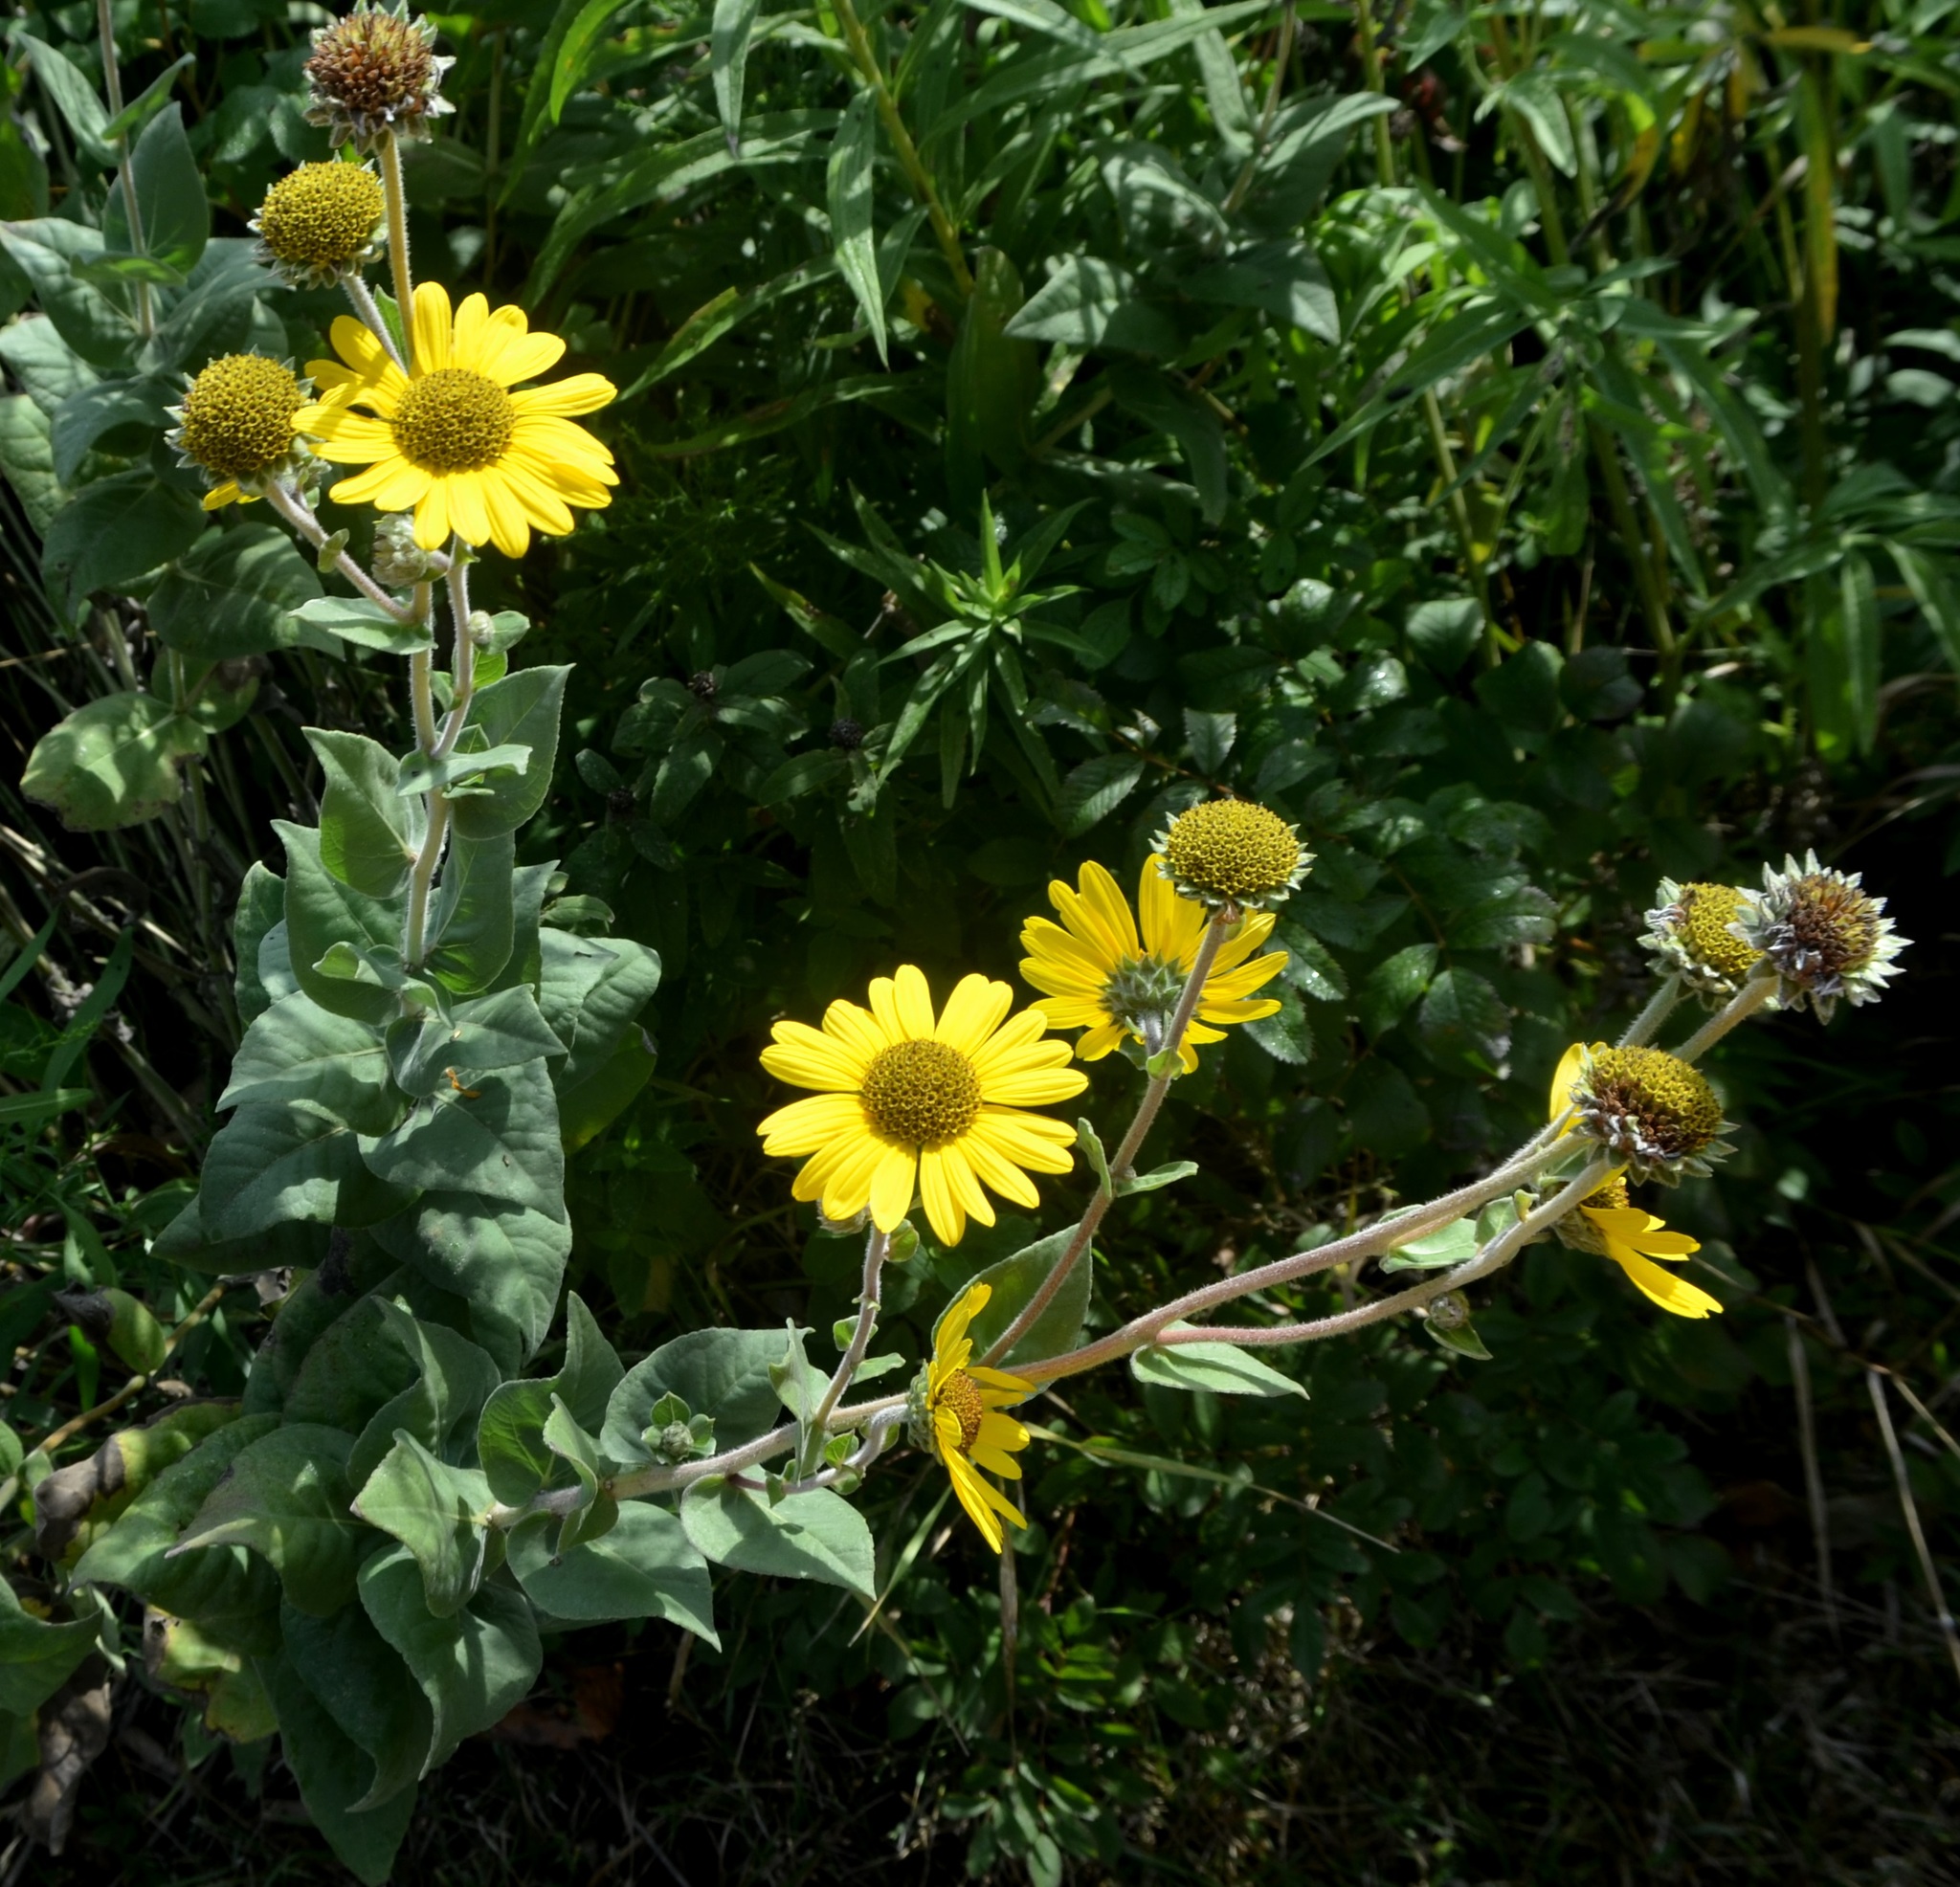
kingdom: Plantae
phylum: Tracheophyta
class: Magnoliopsida
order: Asterales
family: Asteraceae
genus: Helianthus
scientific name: Helianthus mollis
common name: Ashy sunflower
